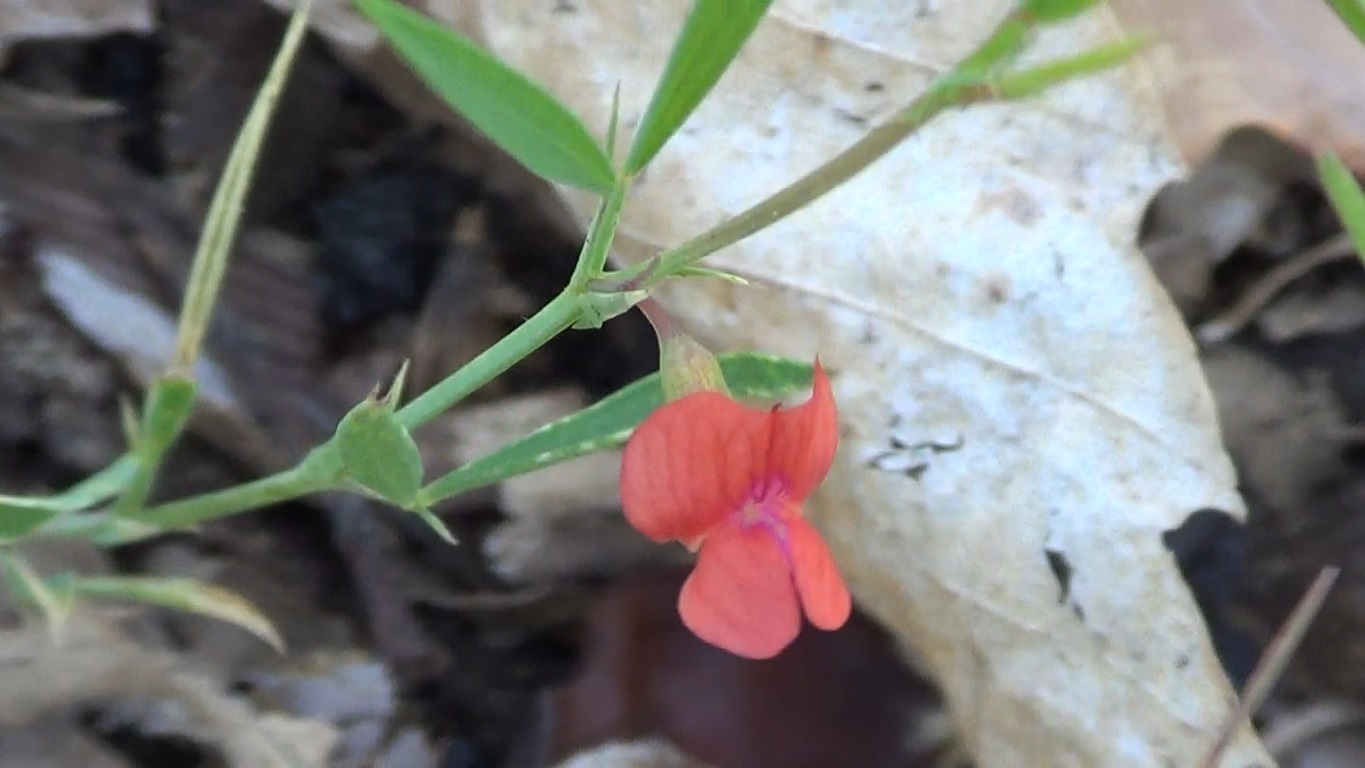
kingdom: Plantae
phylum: Tracheophyta
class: Magnoliopsida
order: Fabales
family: Fabaceae
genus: Lathyrus
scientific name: Lathyrus sphaericus
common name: Grass pea
